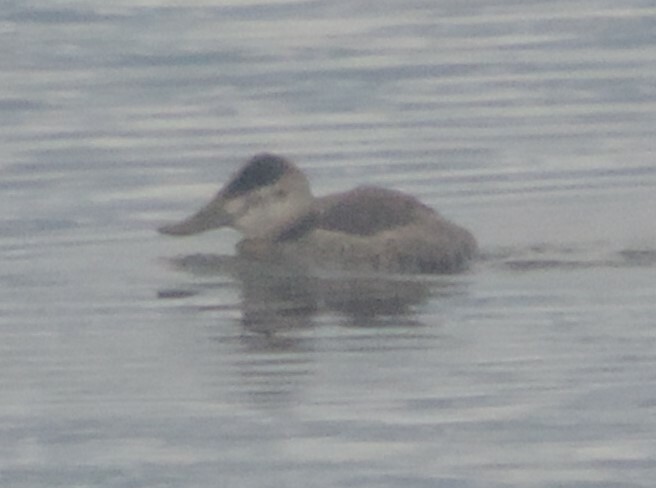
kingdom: Animalia
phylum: Chordata
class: Aves
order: Anseriformes
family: Anatidae
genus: Oxyura
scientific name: Oxyura jamaicensis
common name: Ruddy duck
